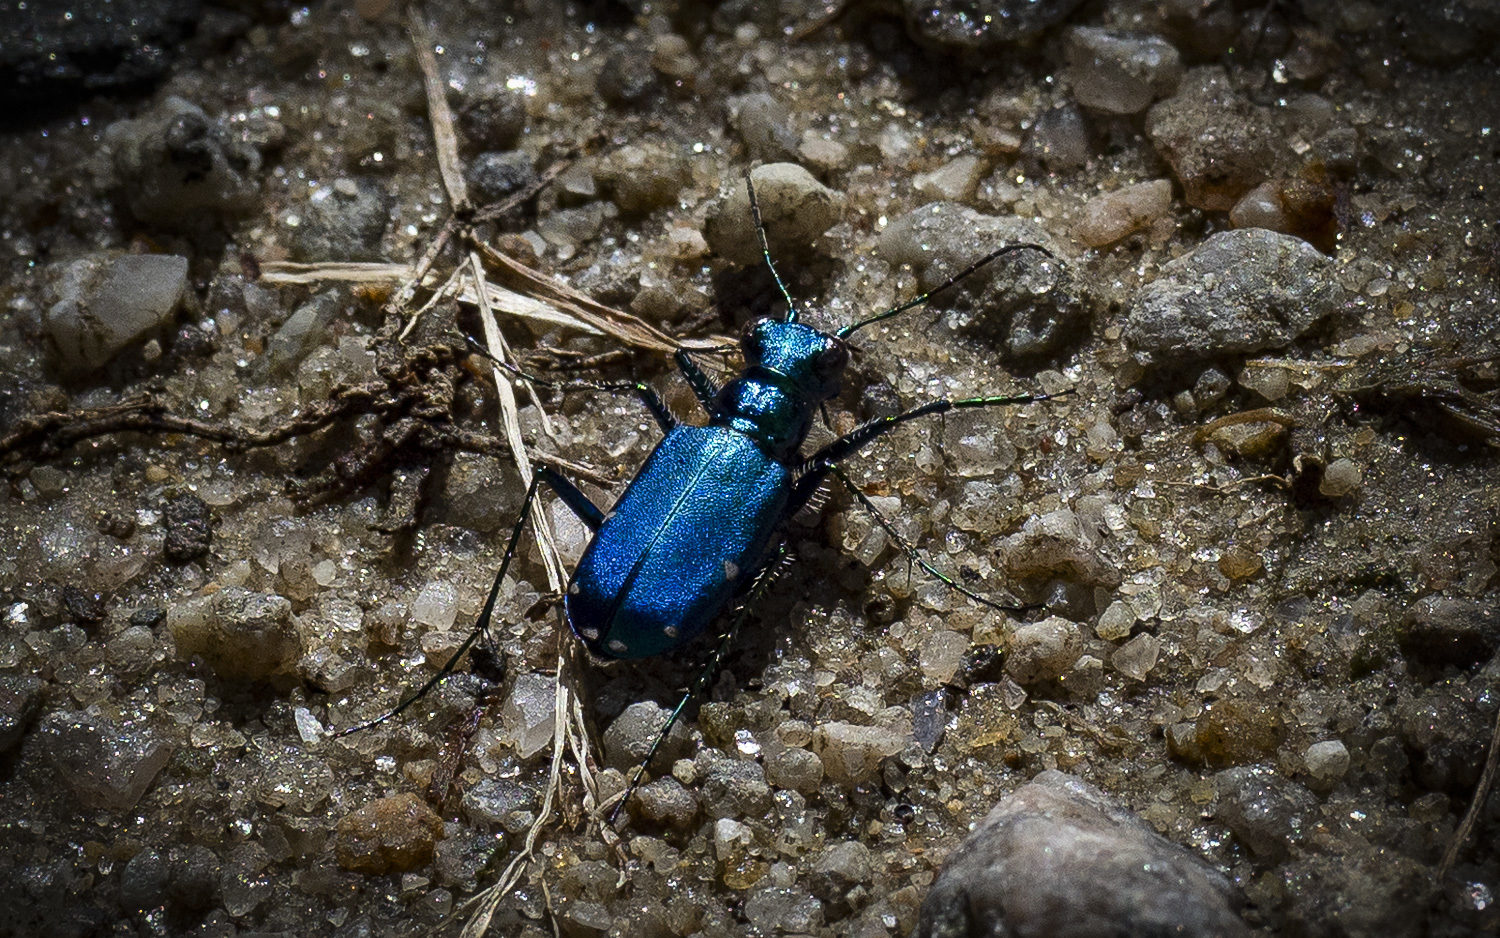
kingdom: Animalia
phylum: Arthropoda
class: Insecta
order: Coleoptera
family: Carabidae
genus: Cicindela
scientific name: Cicindela sexguttata
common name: Six-spotted tiger beetle
